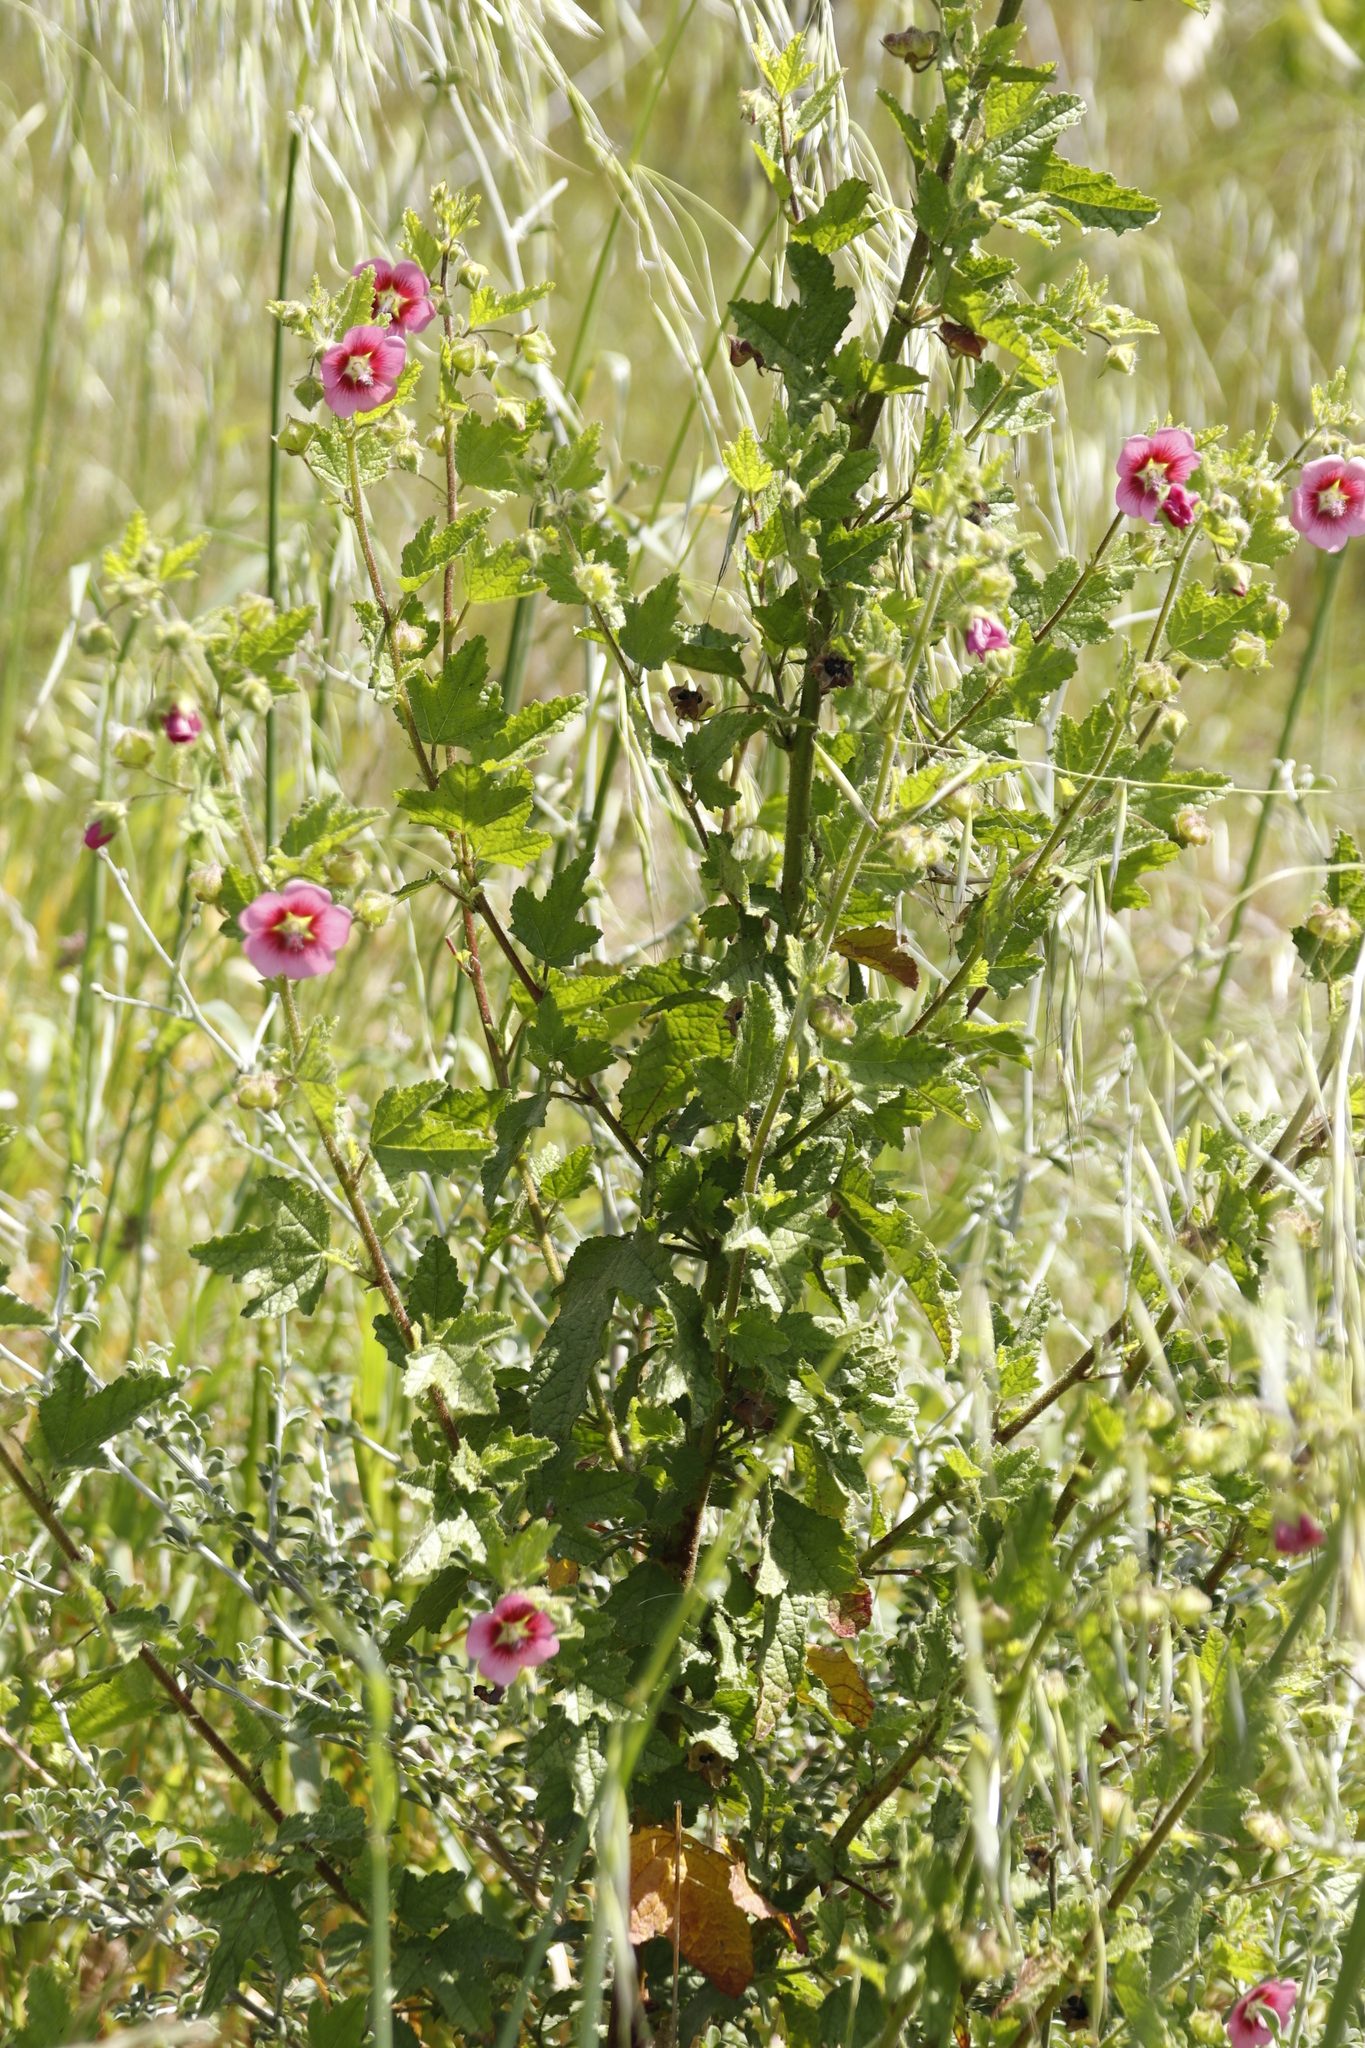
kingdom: Plantae
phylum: Tracheophyta
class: Magnoliopsida
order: Malvales
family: Malvaceae
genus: Anisodontea
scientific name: Anisodontea scabrosa
